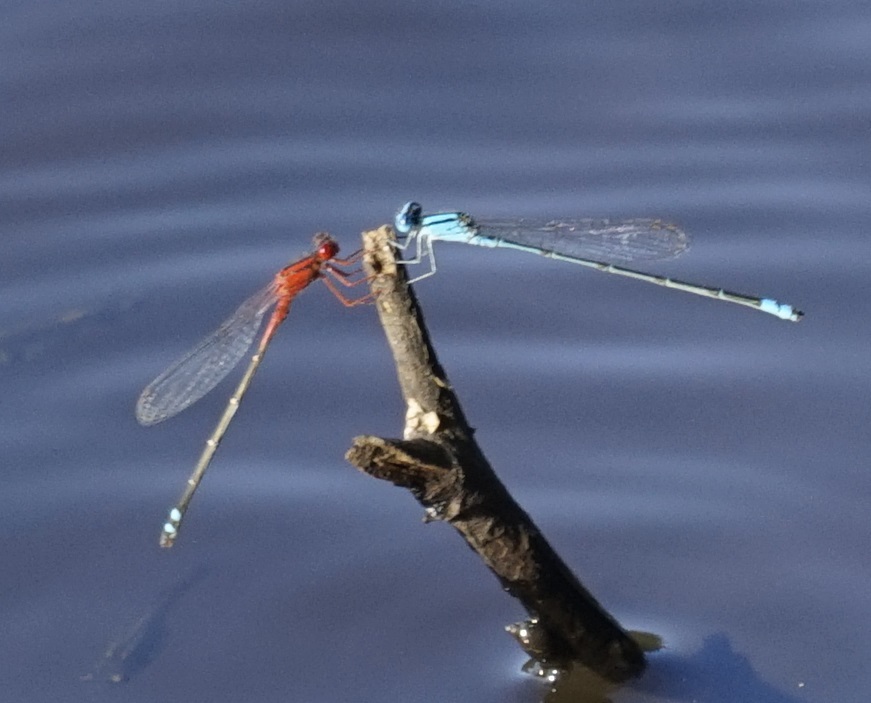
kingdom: Animalia
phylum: Arthropoda
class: Insecta
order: Odonata
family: Coenagrionidae
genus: Pseudagrion
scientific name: Pseudagrion microcephalum
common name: Blue riverdamsel
